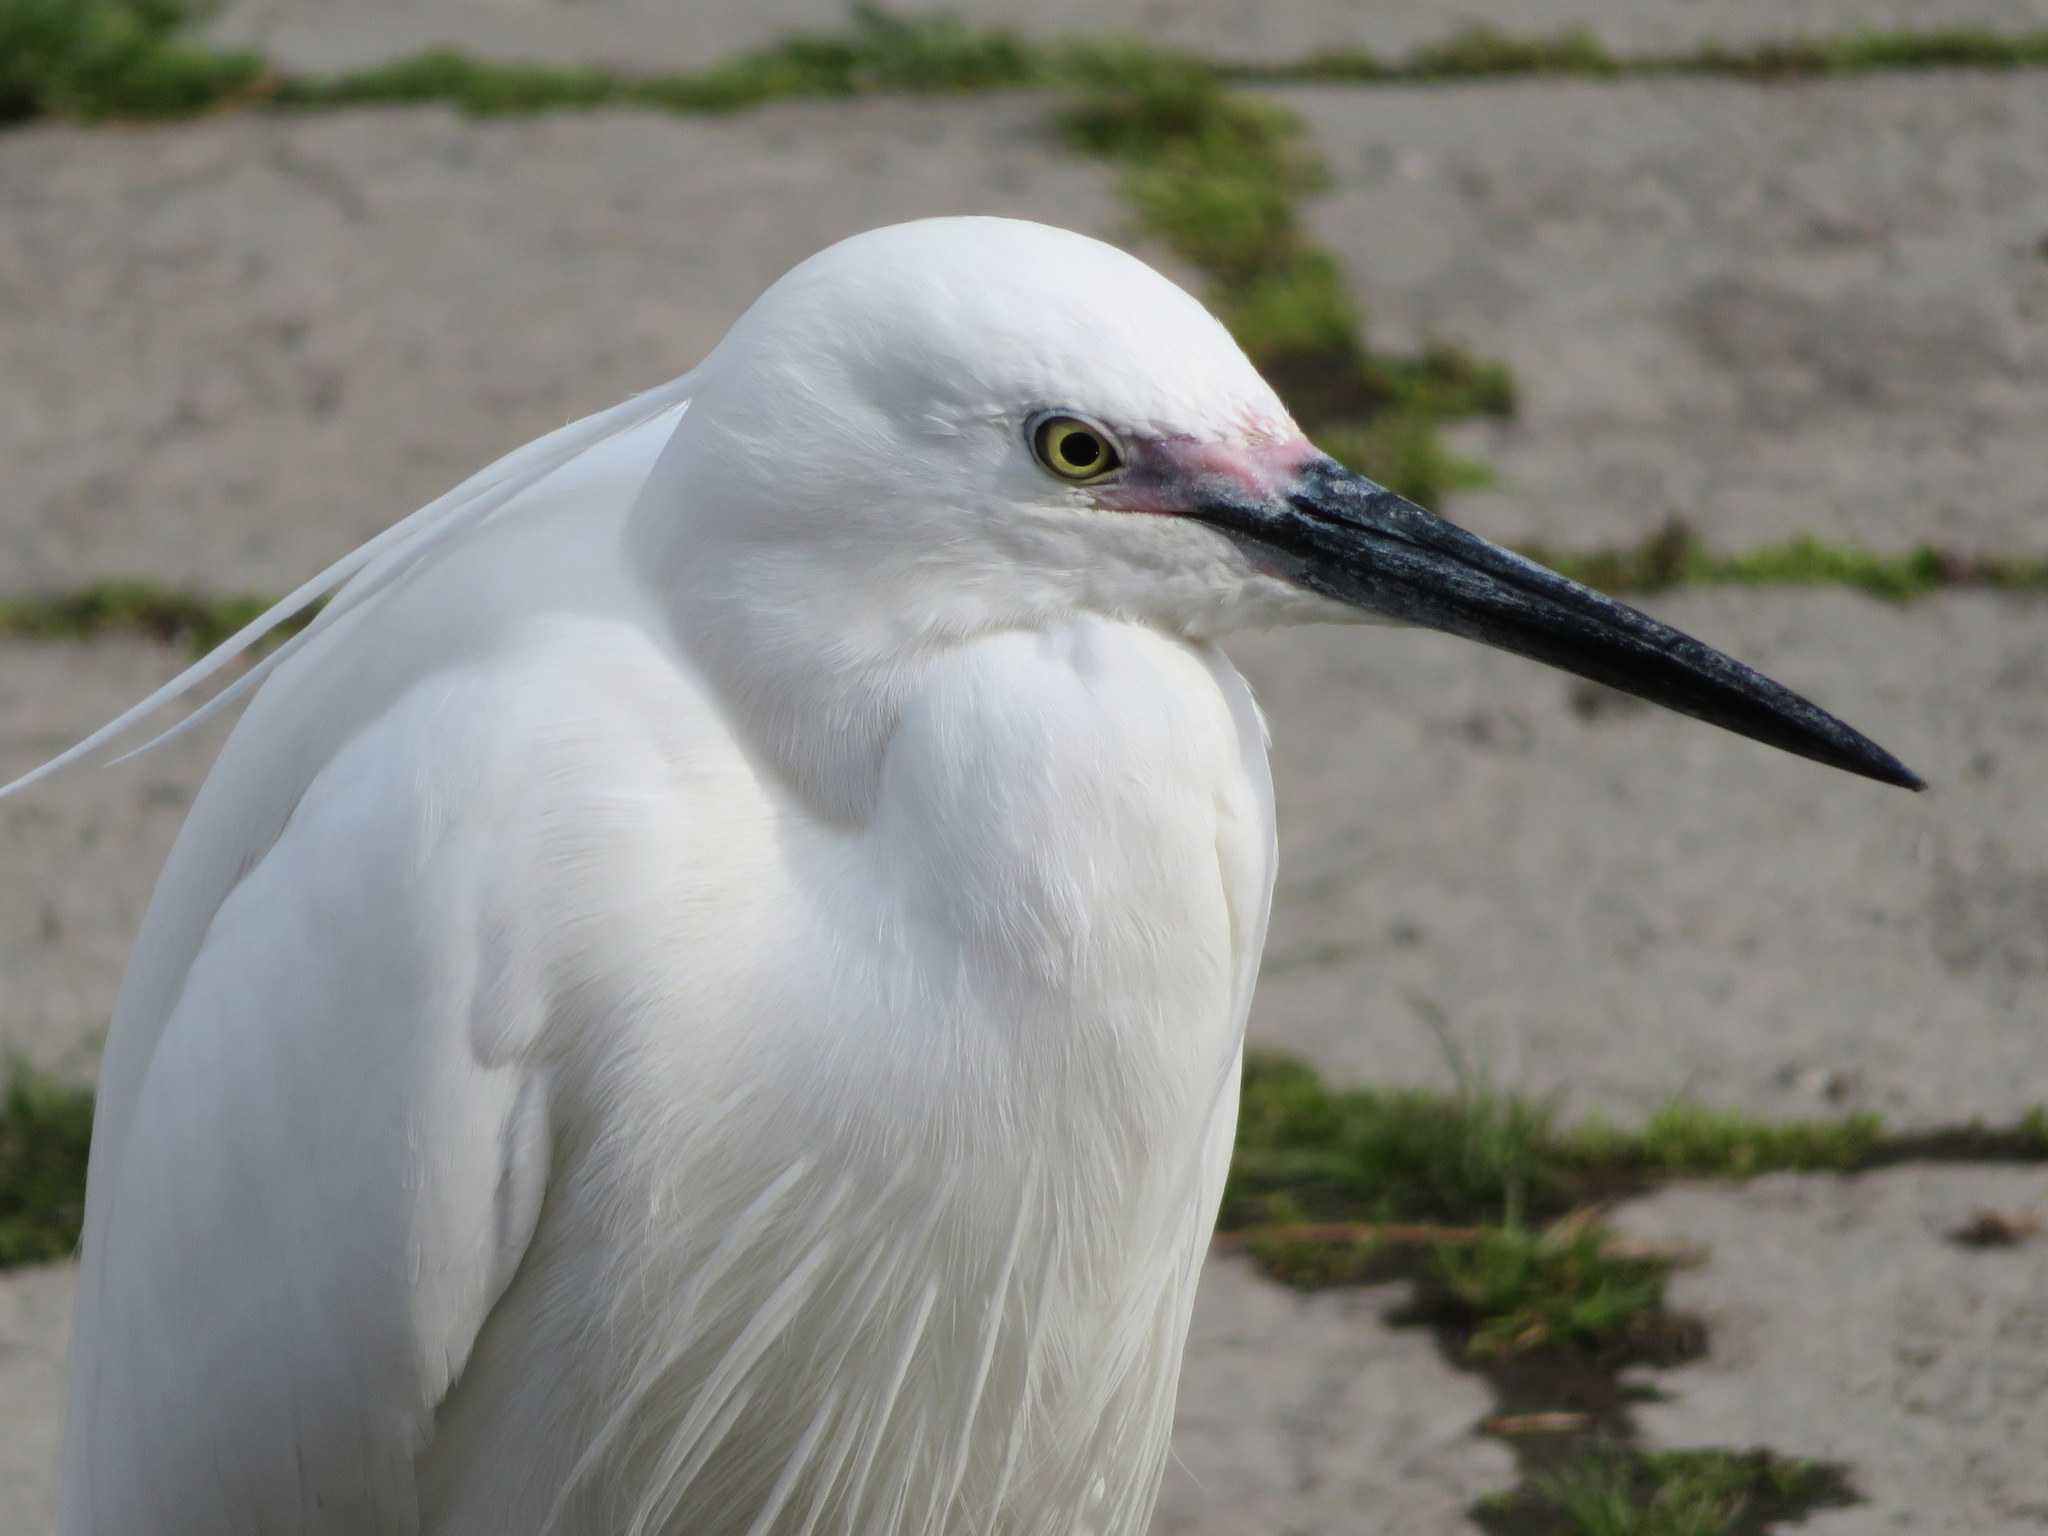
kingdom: Animalia
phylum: Chordata
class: Aves
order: Pelecaniformes
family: Ardeidae
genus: Egretta
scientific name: Egretta garzetta
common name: Little egret
